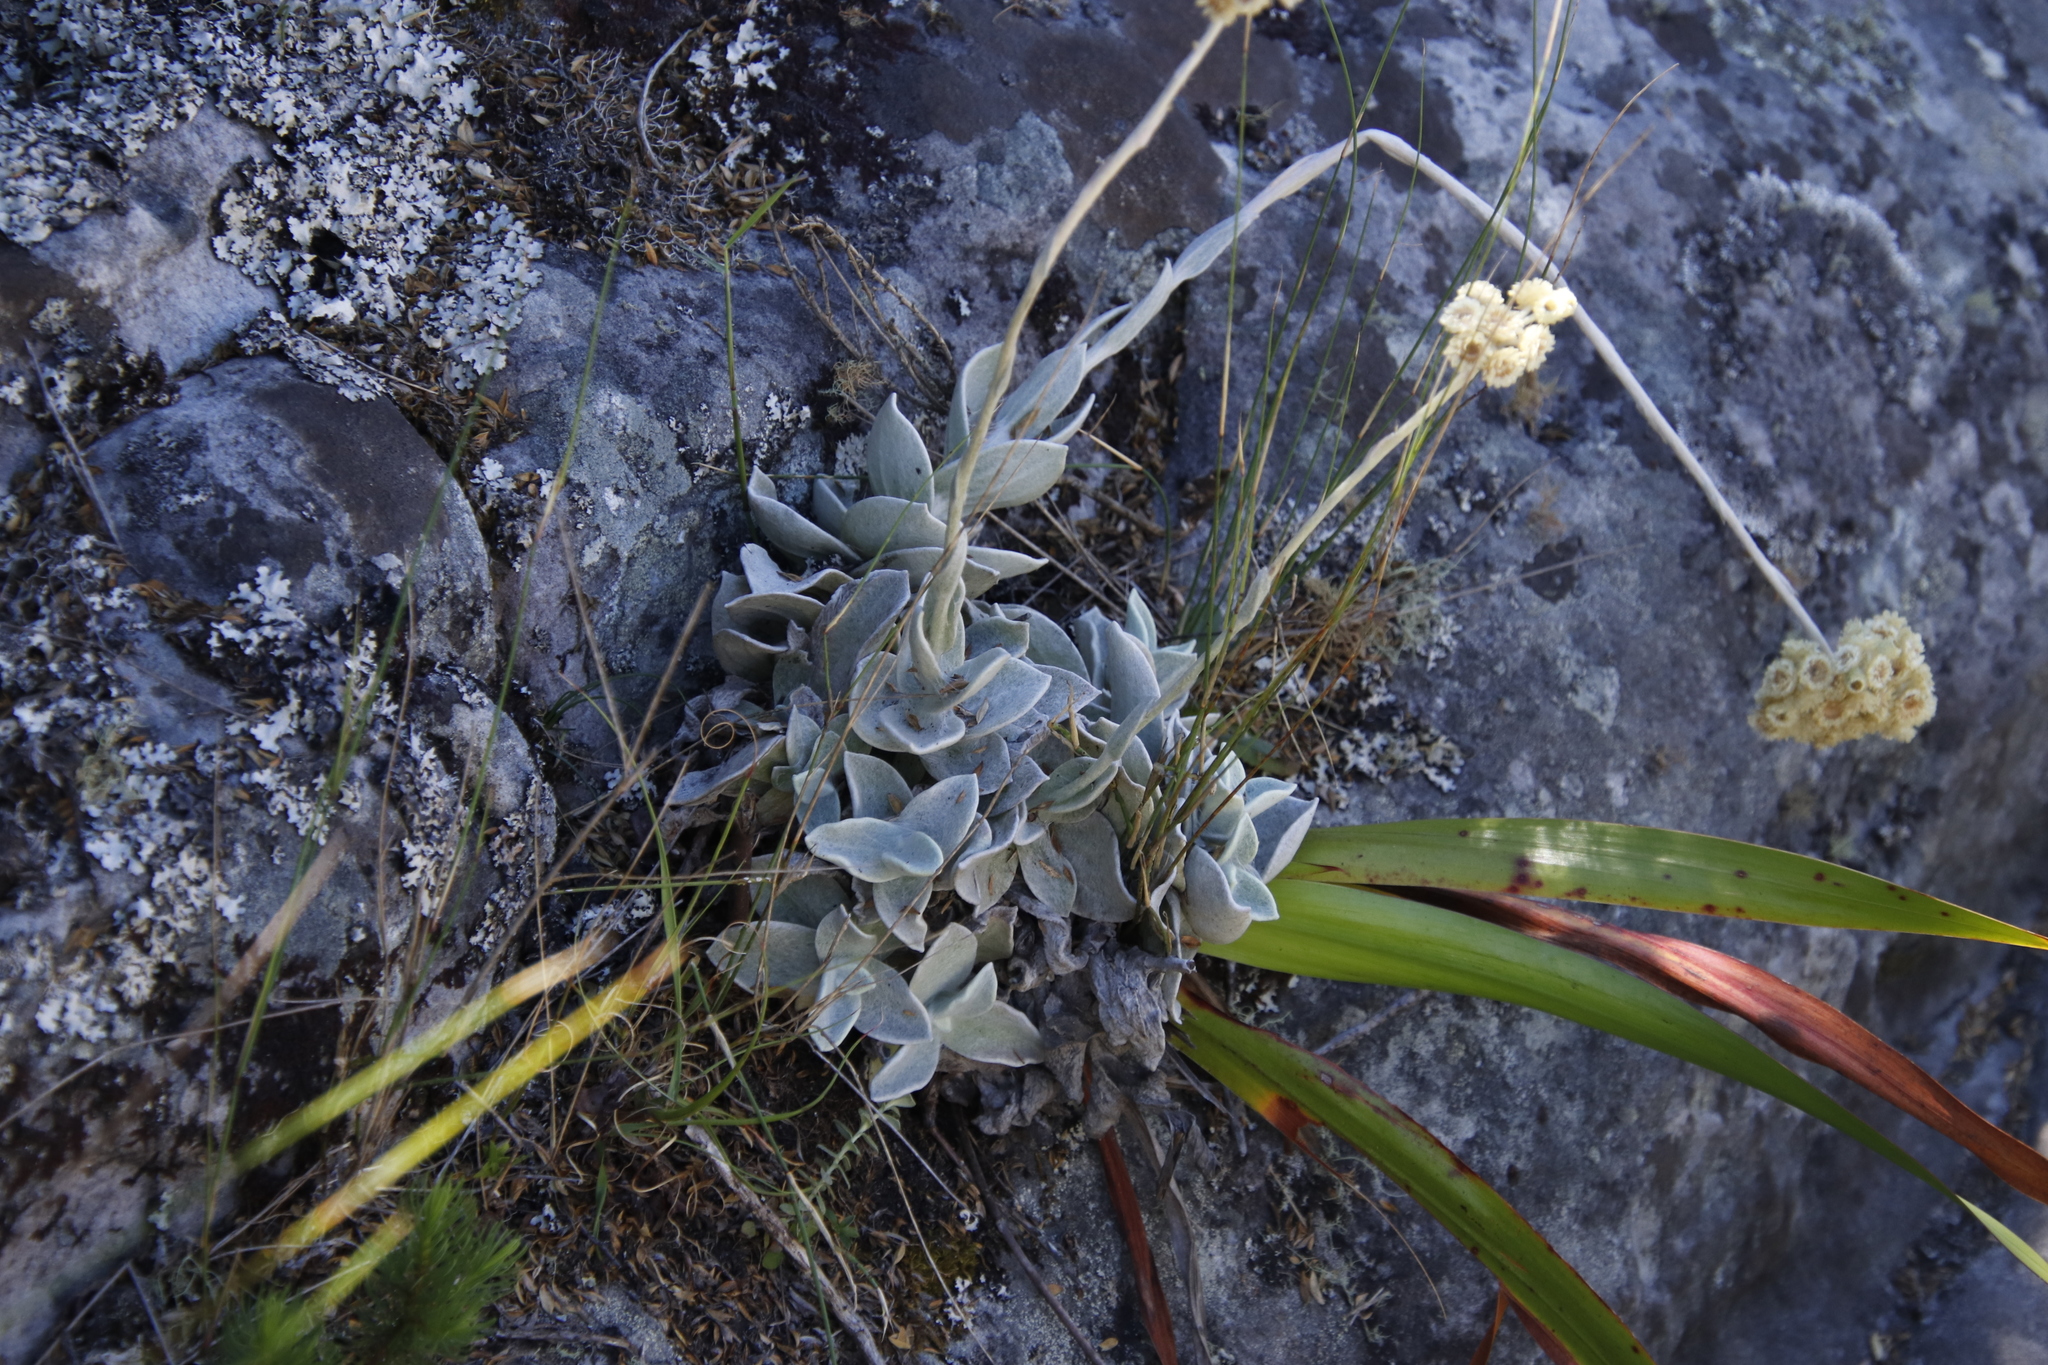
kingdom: Plantae
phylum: Tracheophyta
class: Magnoliopsida
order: Asterales
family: Asteraceae
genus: Helichrysum
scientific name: Helichrysum grandiflorum
